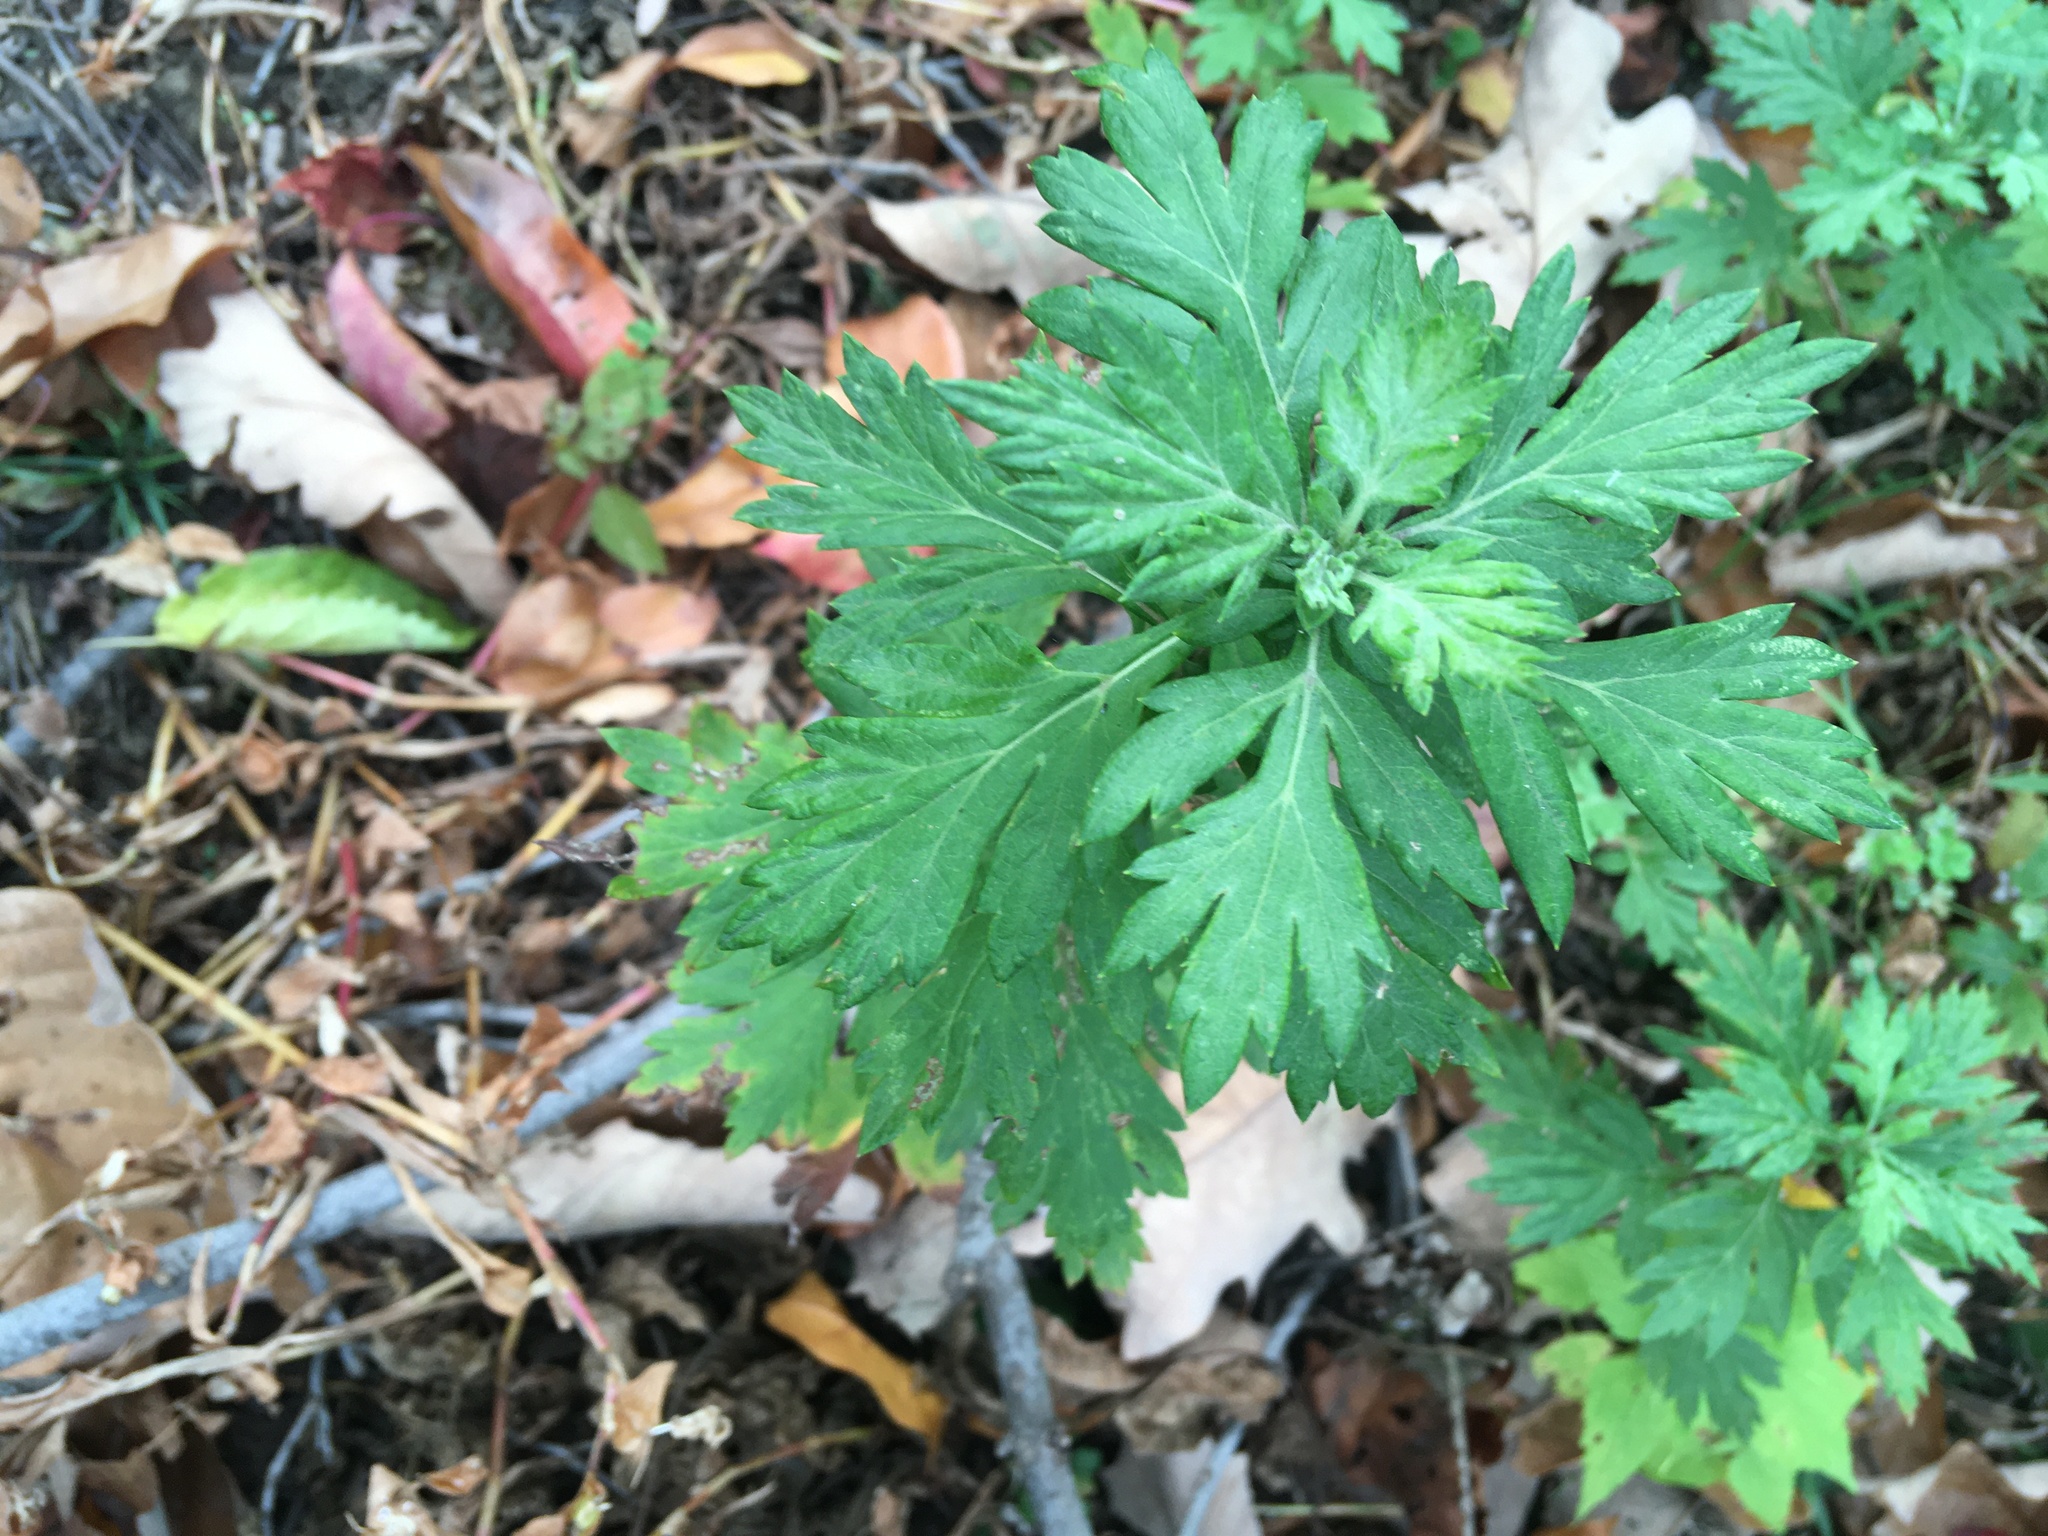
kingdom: Plantae
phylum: Tracheophyta
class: Magnoliopsida
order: Asterales
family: Asteraceae
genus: Artemisia
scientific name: Artemisia vulgaris
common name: Mugwort
